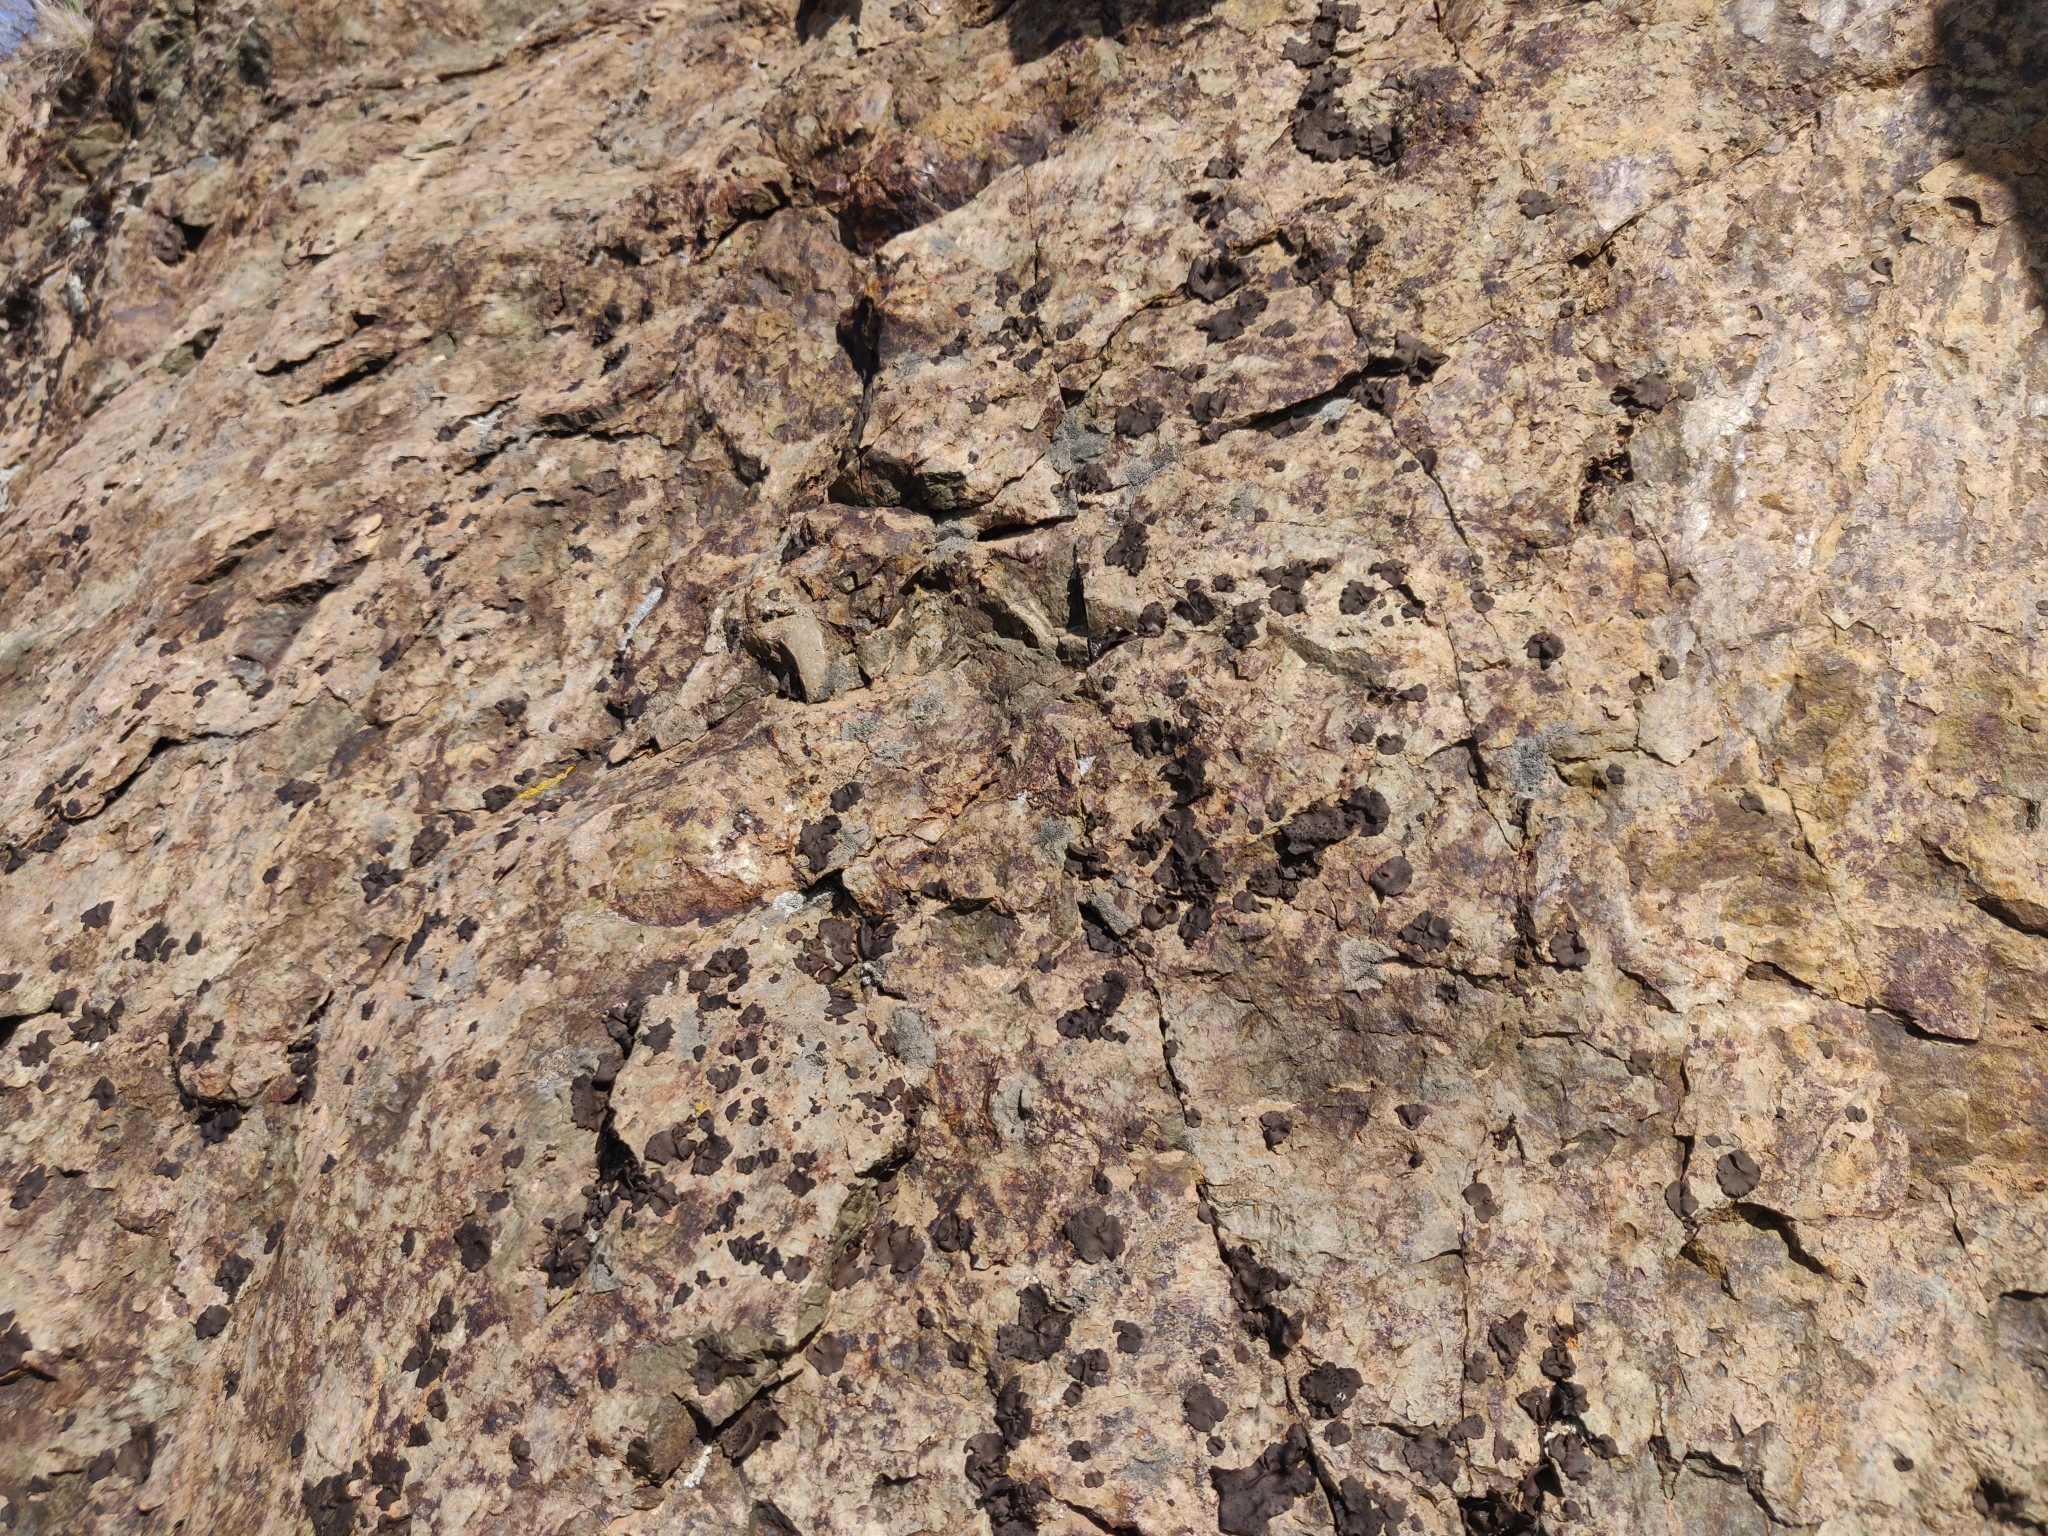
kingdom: Fungi
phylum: Ascomycota
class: Lecanoromycetes
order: Umbilicariales
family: Umbilicariaceae
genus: Umbilicaria
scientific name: Umbilicaria phaea
